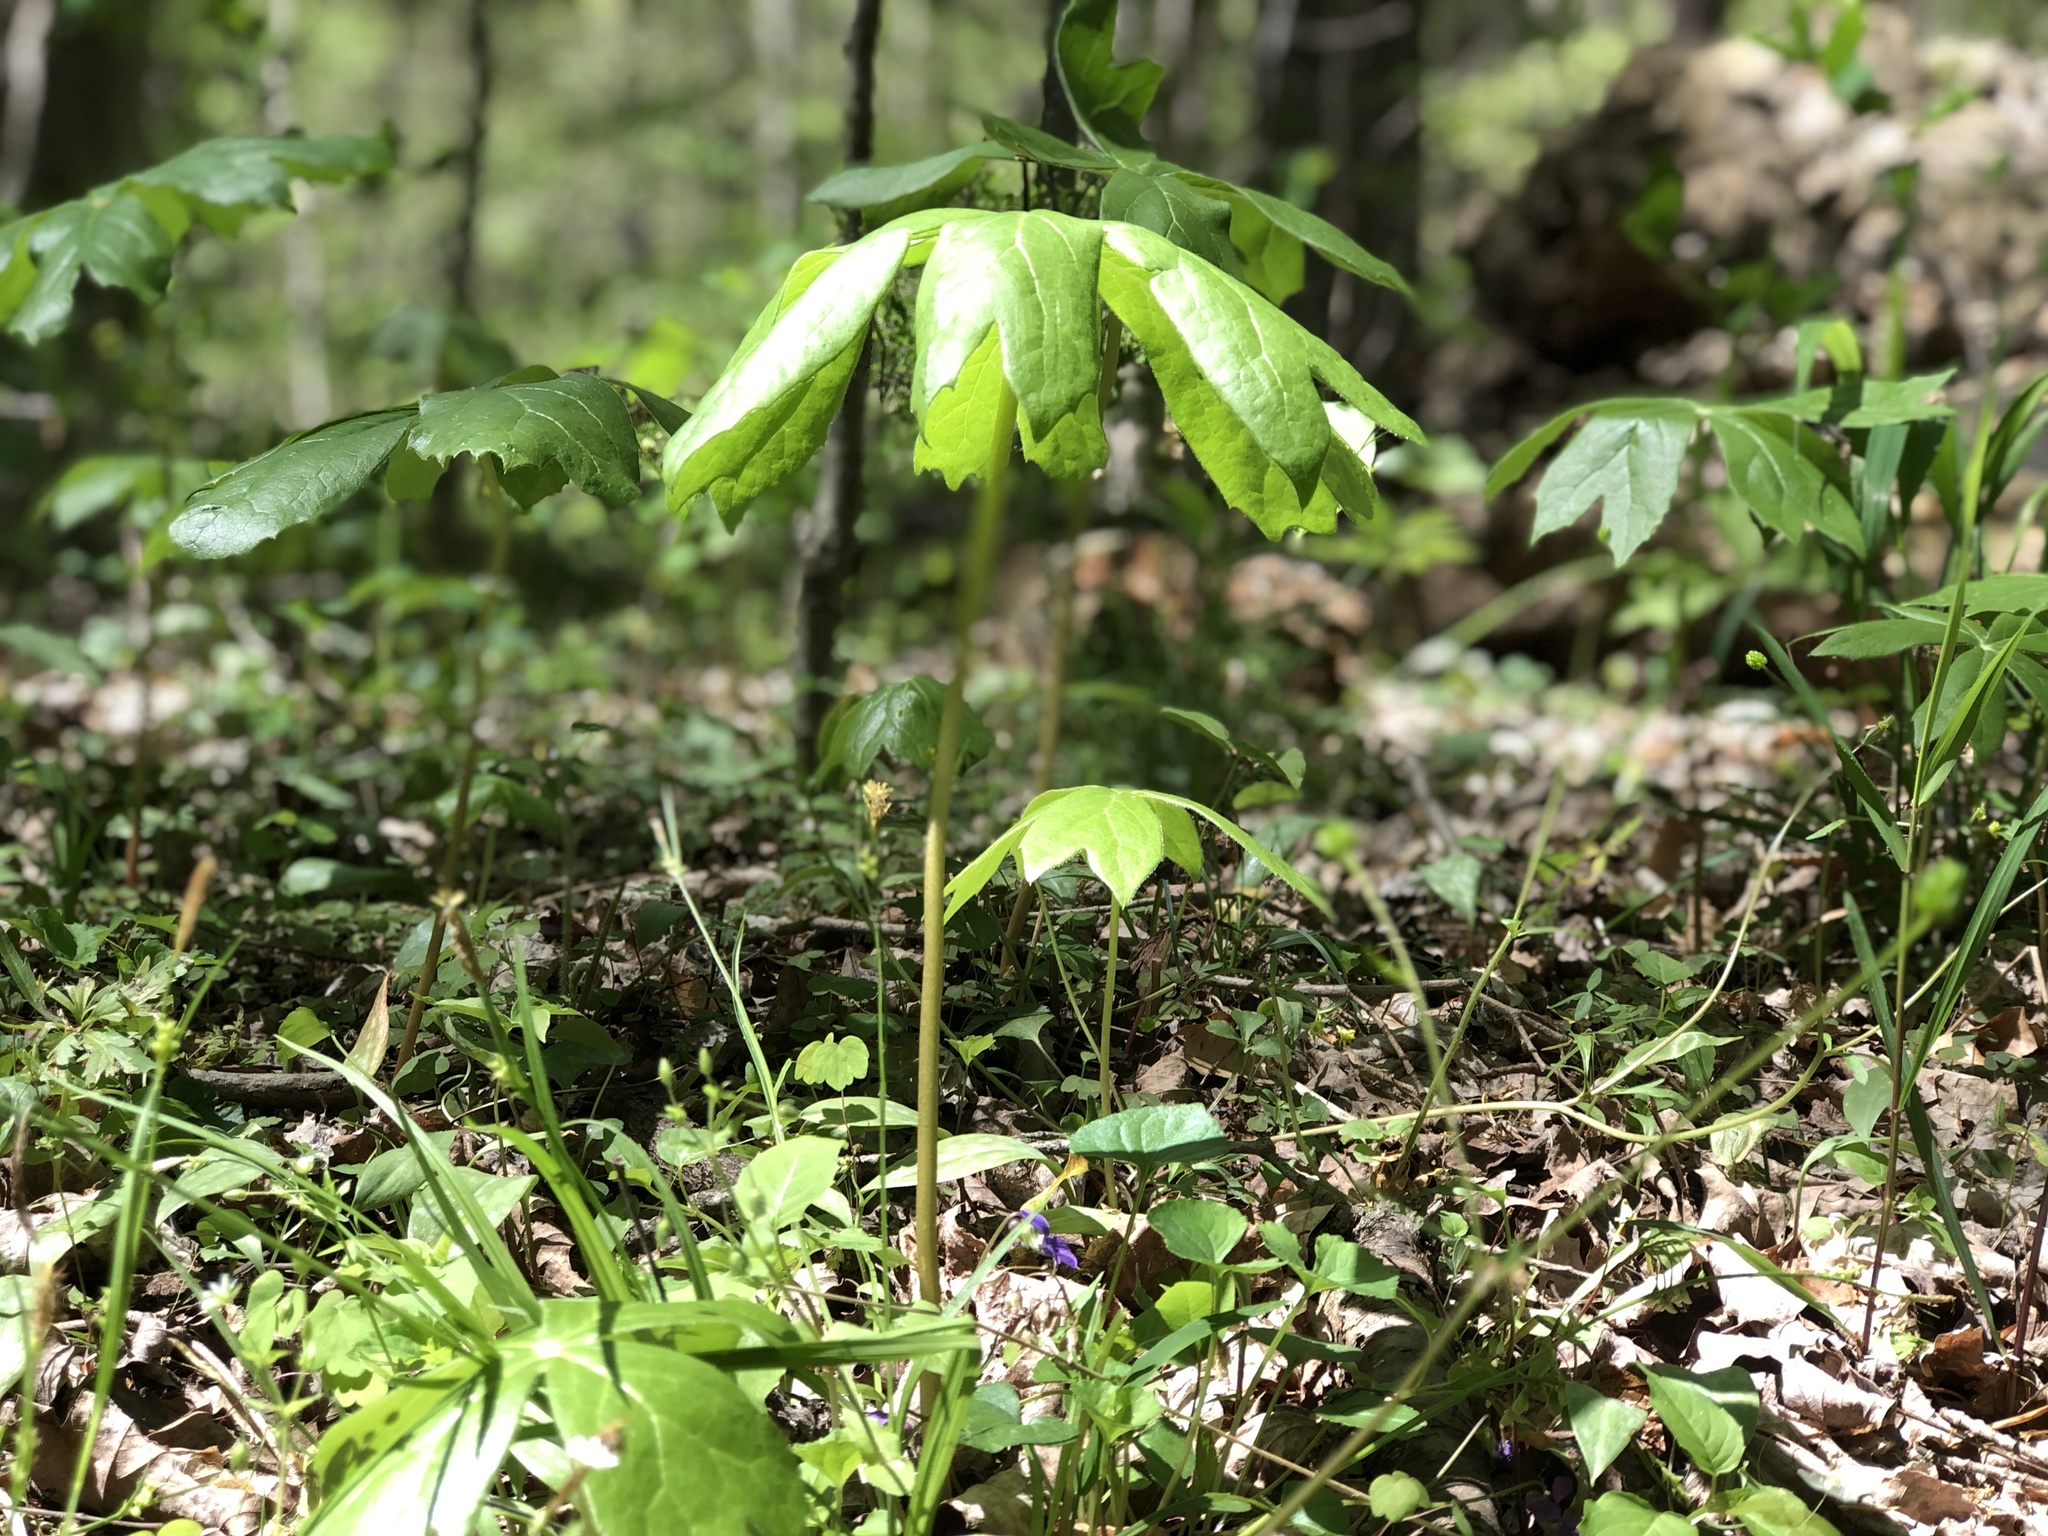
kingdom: Plantae
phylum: Tracheophyta
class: Magnoliopsida
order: Ranunculales
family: Berberidaceae
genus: Podophyllum
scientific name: Podophyllum peltatum
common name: Wild mandrake
